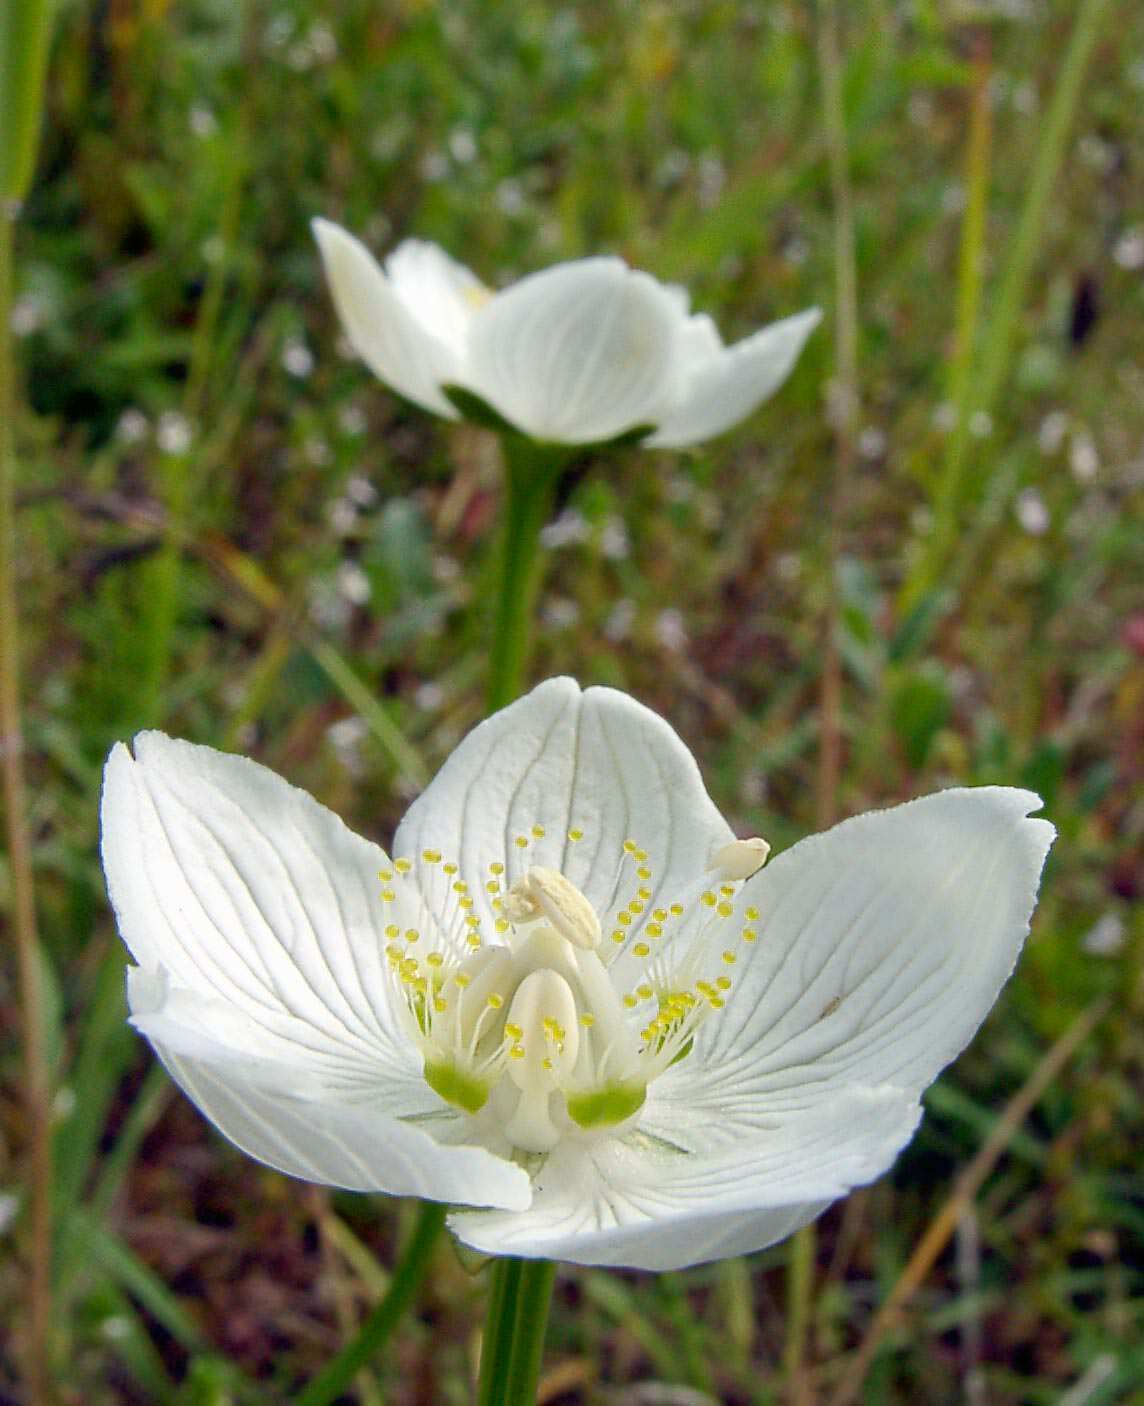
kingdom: Plantae
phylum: Tracheophyta
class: Magnoliopsida
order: Celastrales
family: Parnassiaceae
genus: Parnassia
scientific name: Parnassia palustris
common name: Grass-of-parnassus
